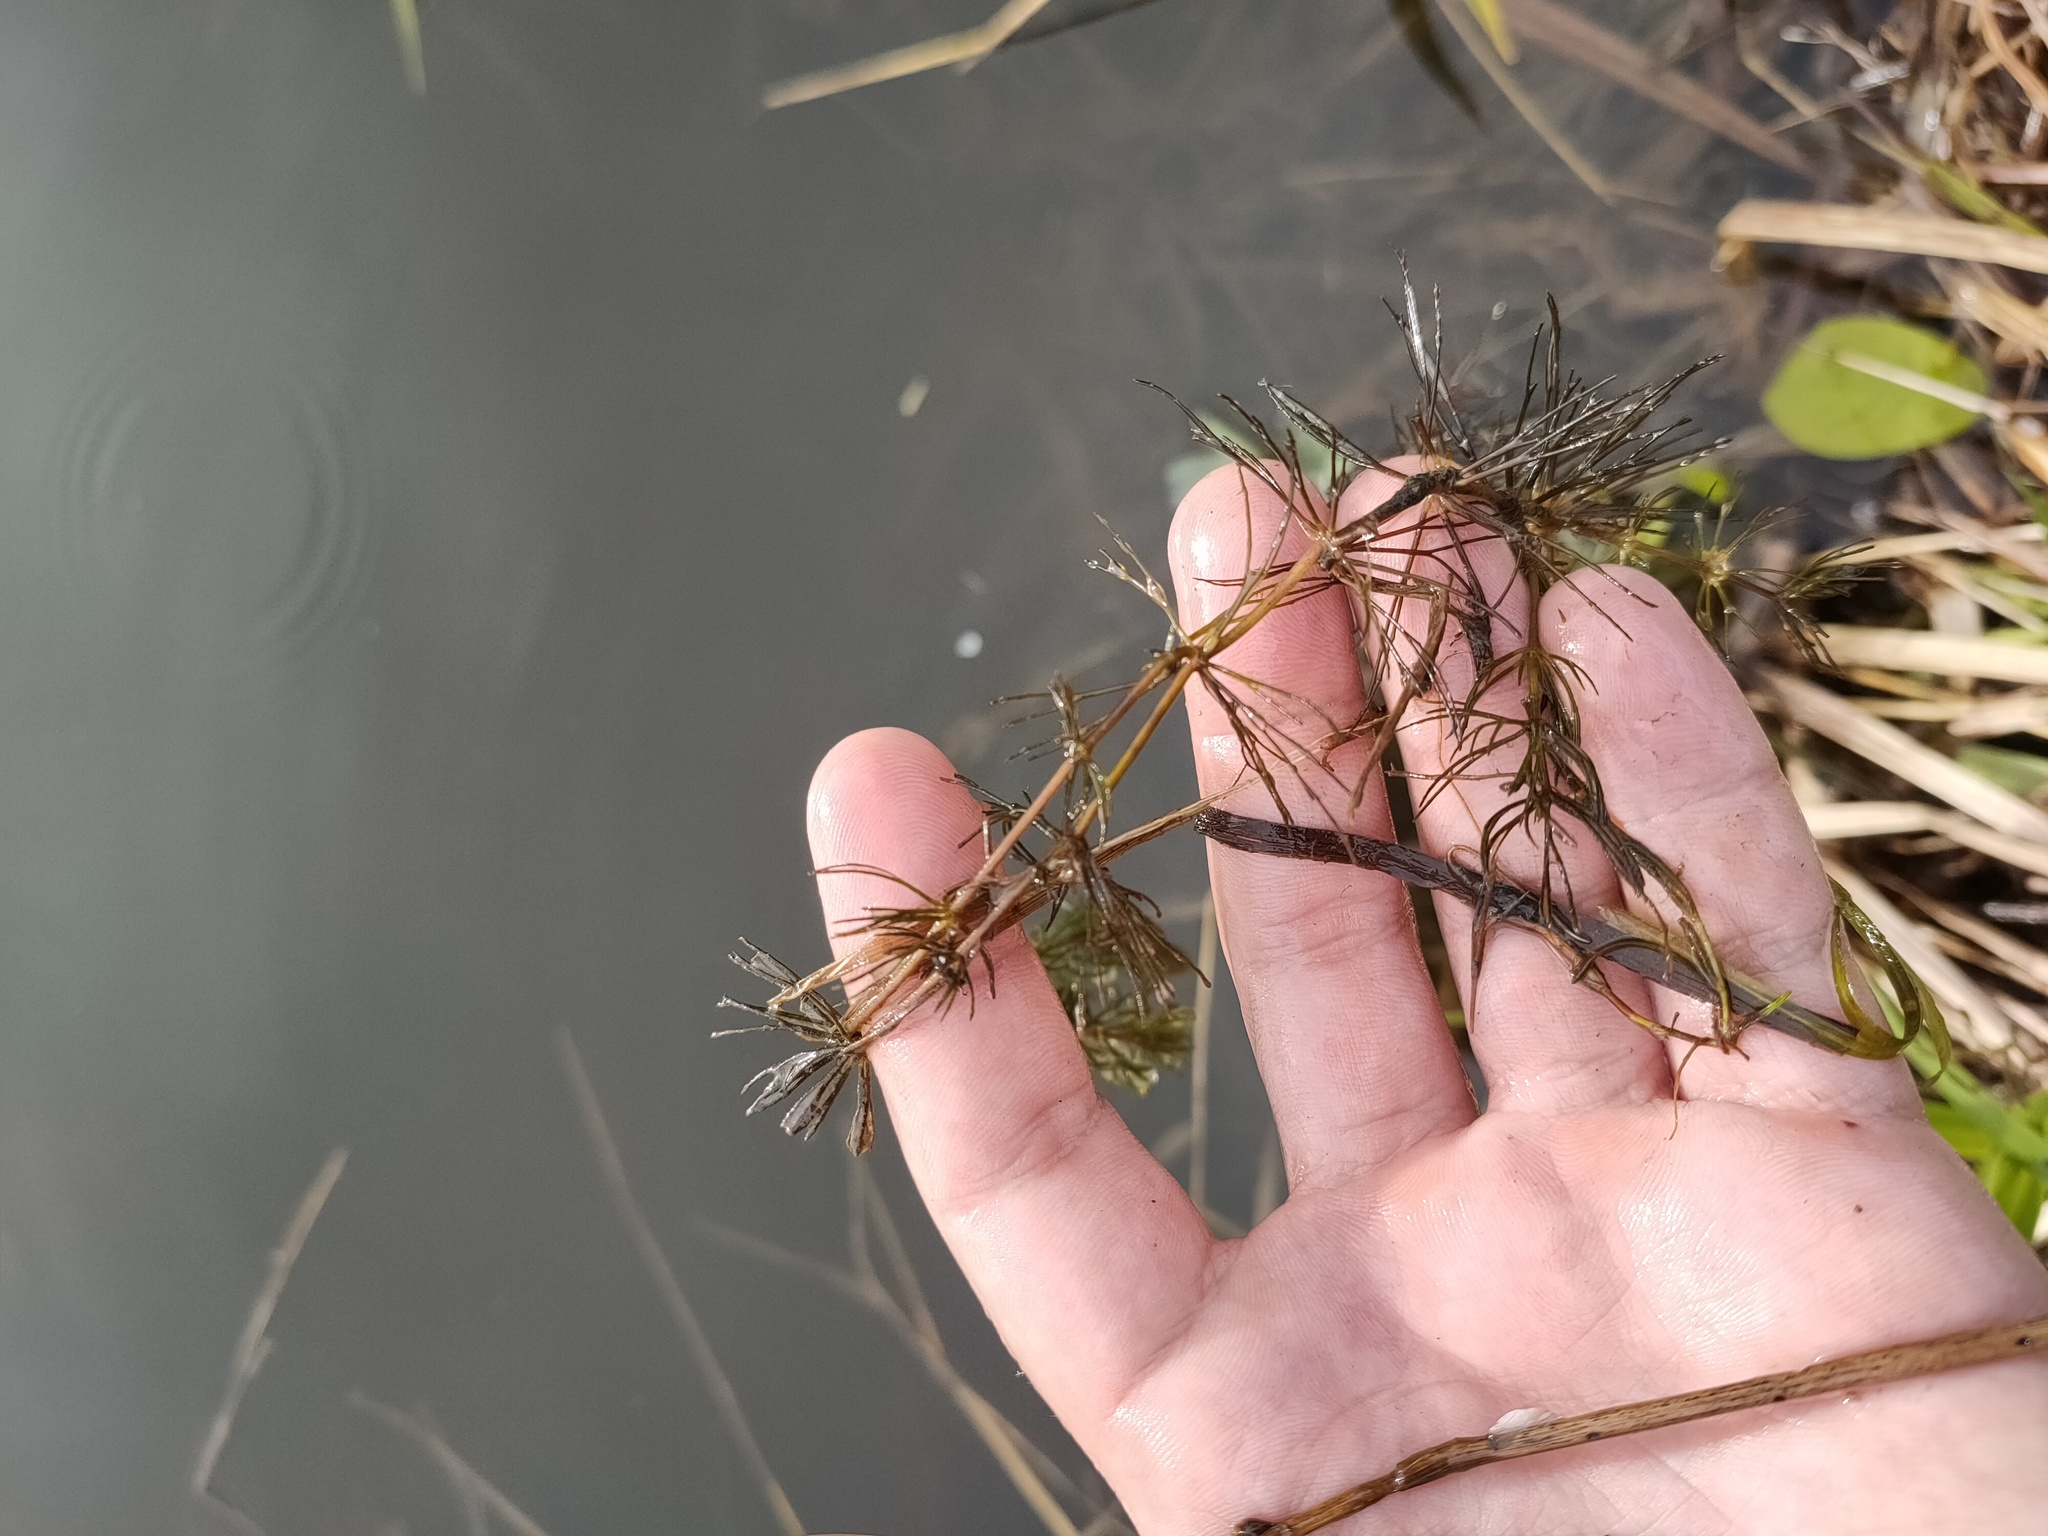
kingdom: Plantae
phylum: Tracheophyta
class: Magnoliopsida
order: Ceratophyllales
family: Ceratophyllaceae
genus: Ceratophyllum
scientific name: Ceratophyllum demersum
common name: Rigid hornwort
